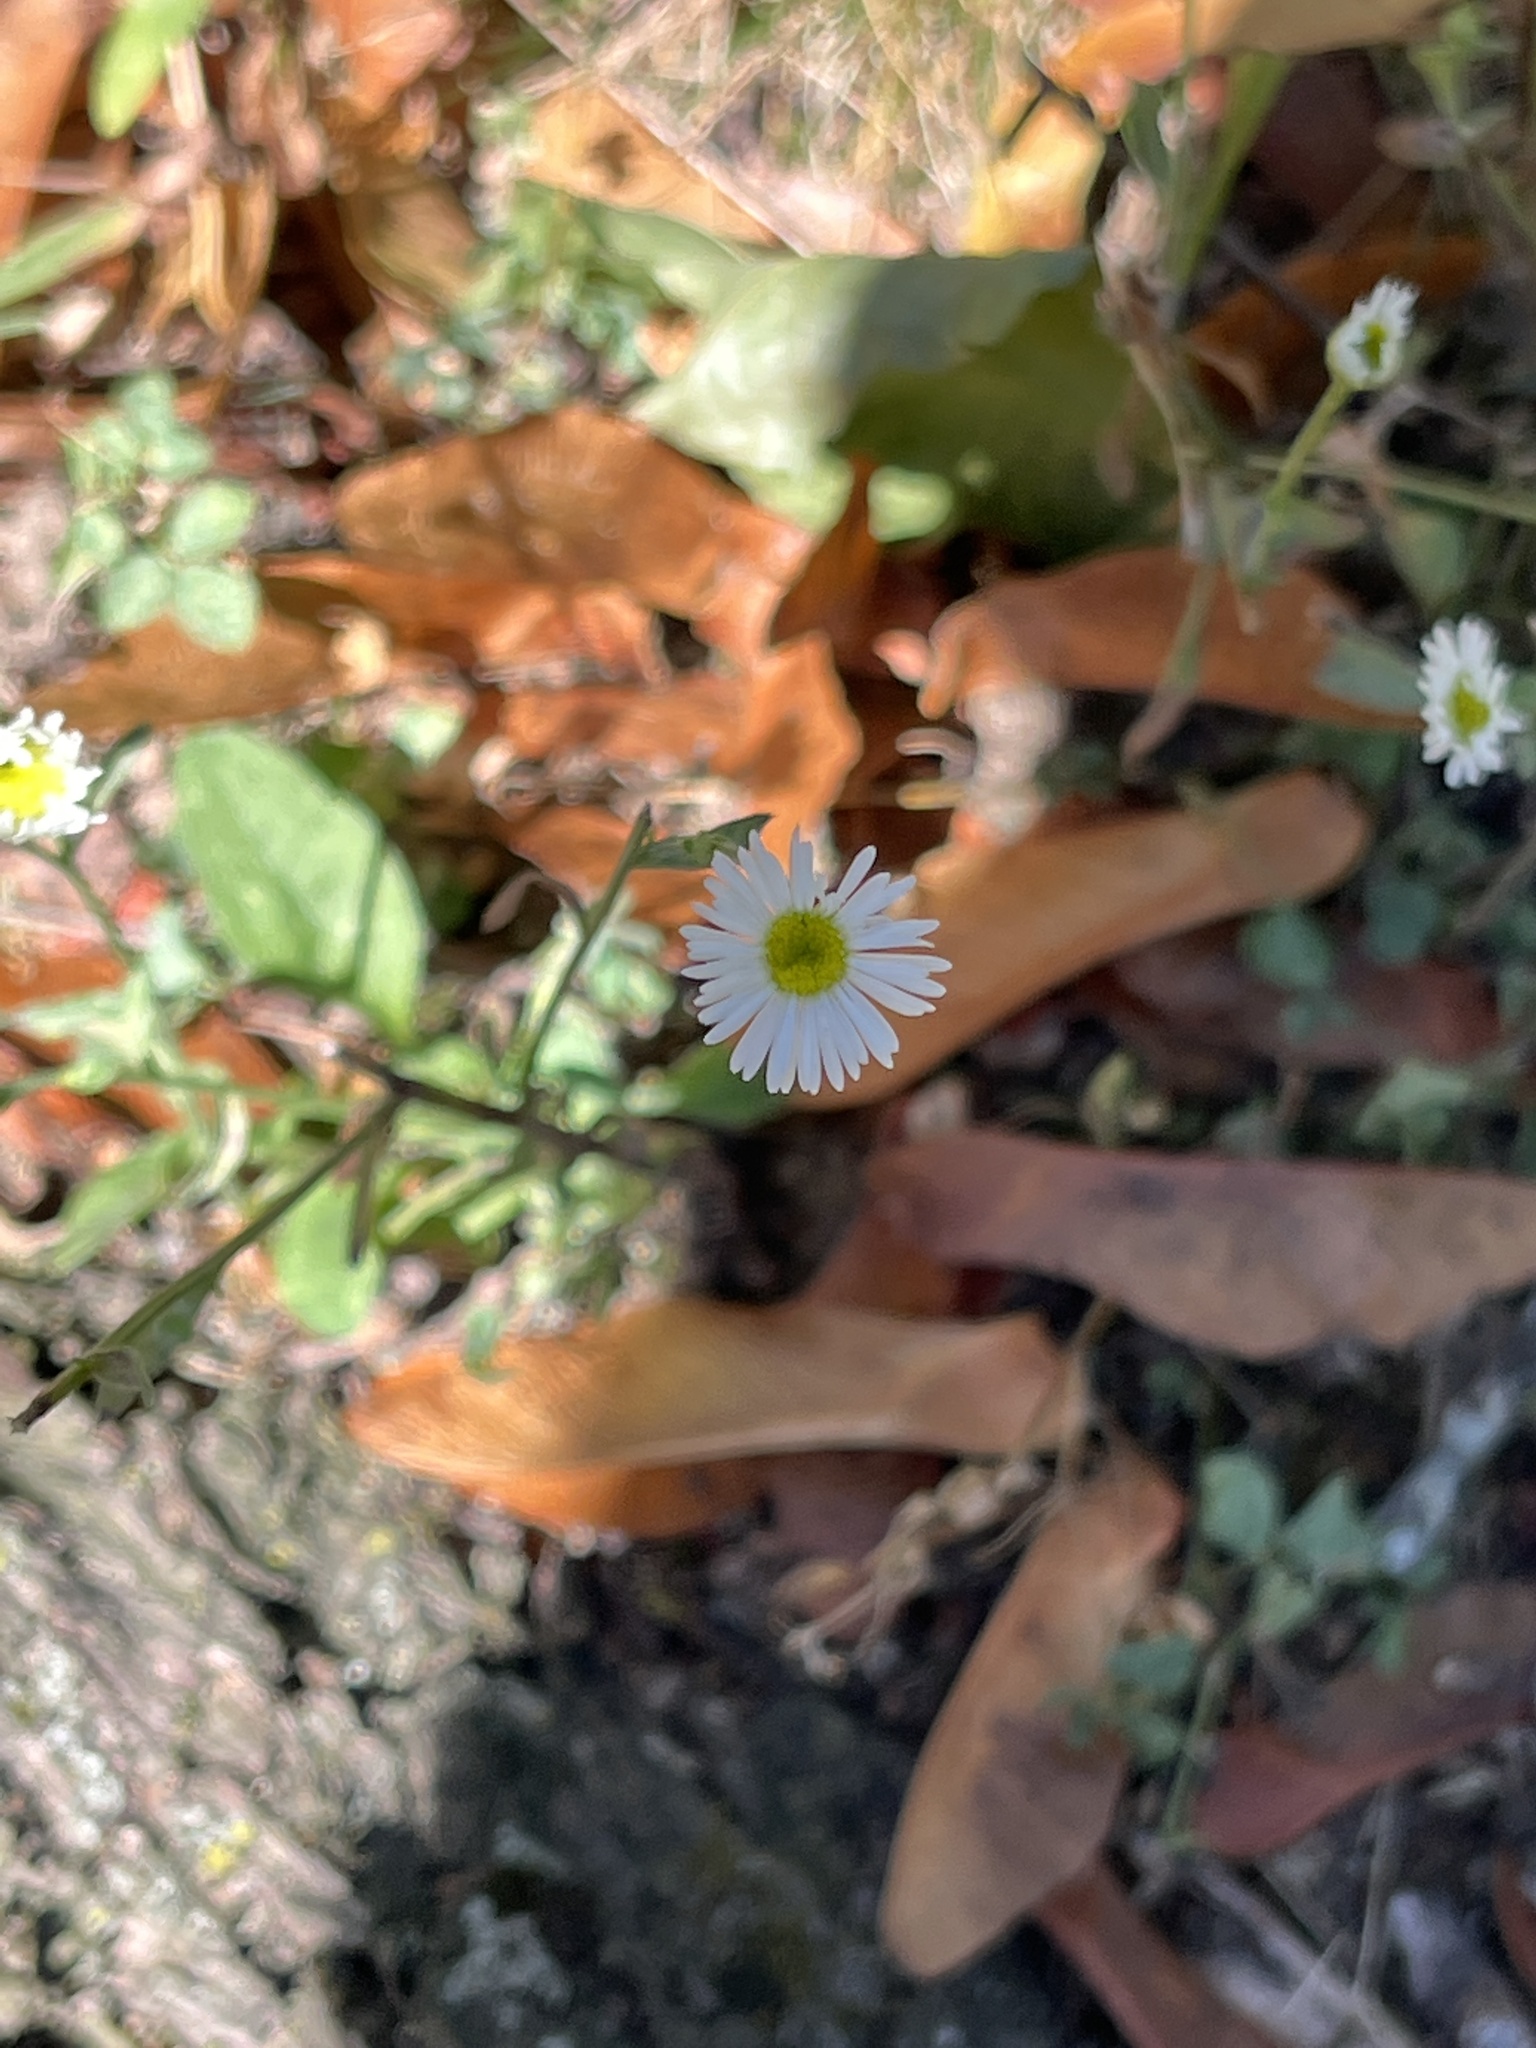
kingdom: Plantae
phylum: Tracheophyta
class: Magnoliopsida
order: Asterales
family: Asteraceae
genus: Erigeron
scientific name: Erigeron strigosus
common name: Common eastern fleabane
